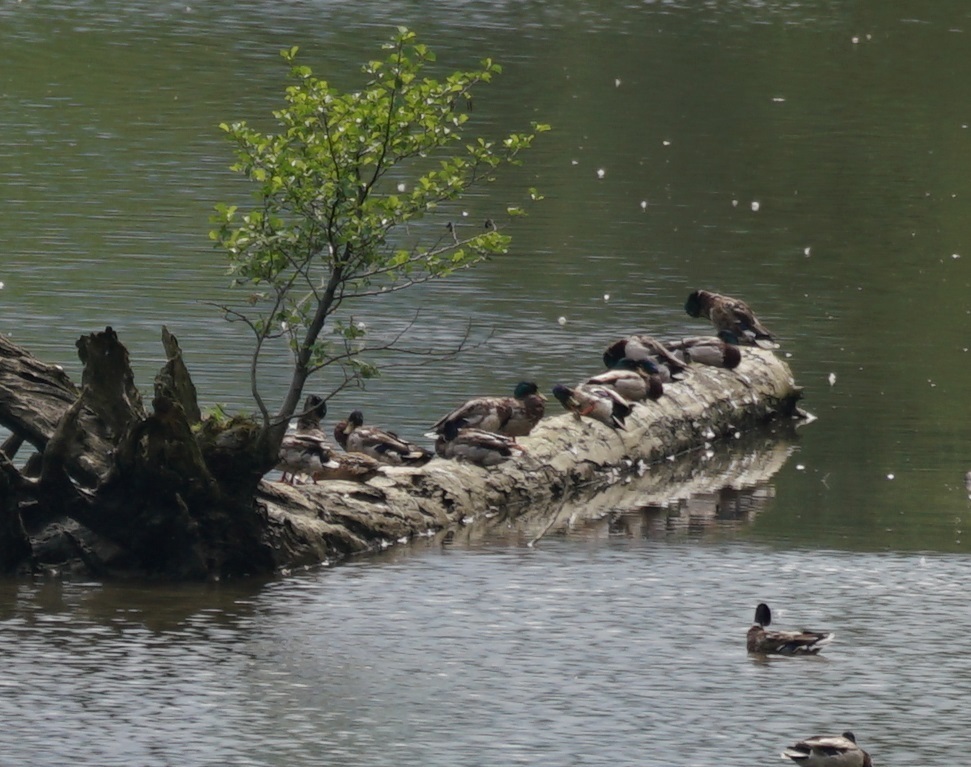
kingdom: Animalia
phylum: Chordata
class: Aves
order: Anseriformes
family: Anatidae
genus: Anas
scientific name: Anas platyrhynchos
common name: Mallard
